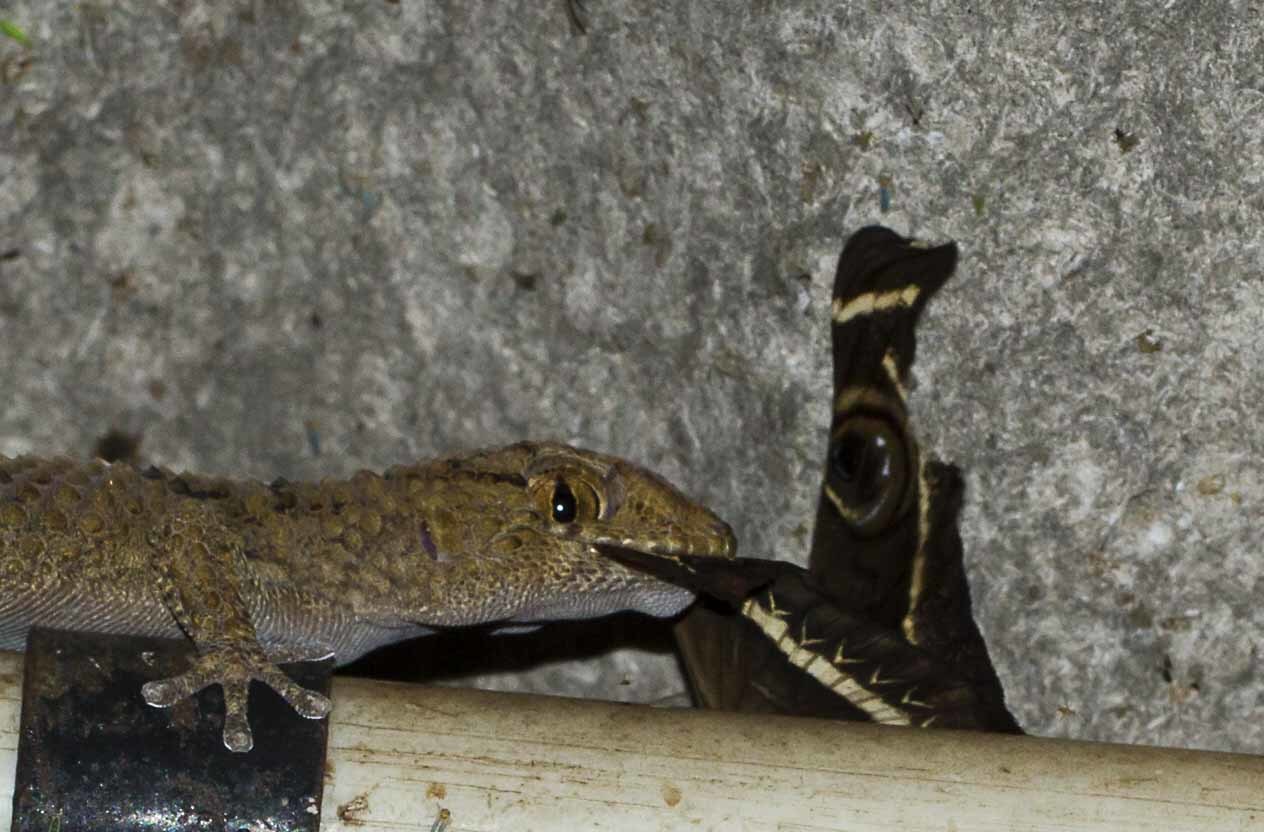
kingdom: Animalia
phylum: Chordata
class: Squamata
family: Gekkonidae
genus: Chondrodactylus
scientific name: Chondrodactylus turneri
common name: Turner’s gecko
